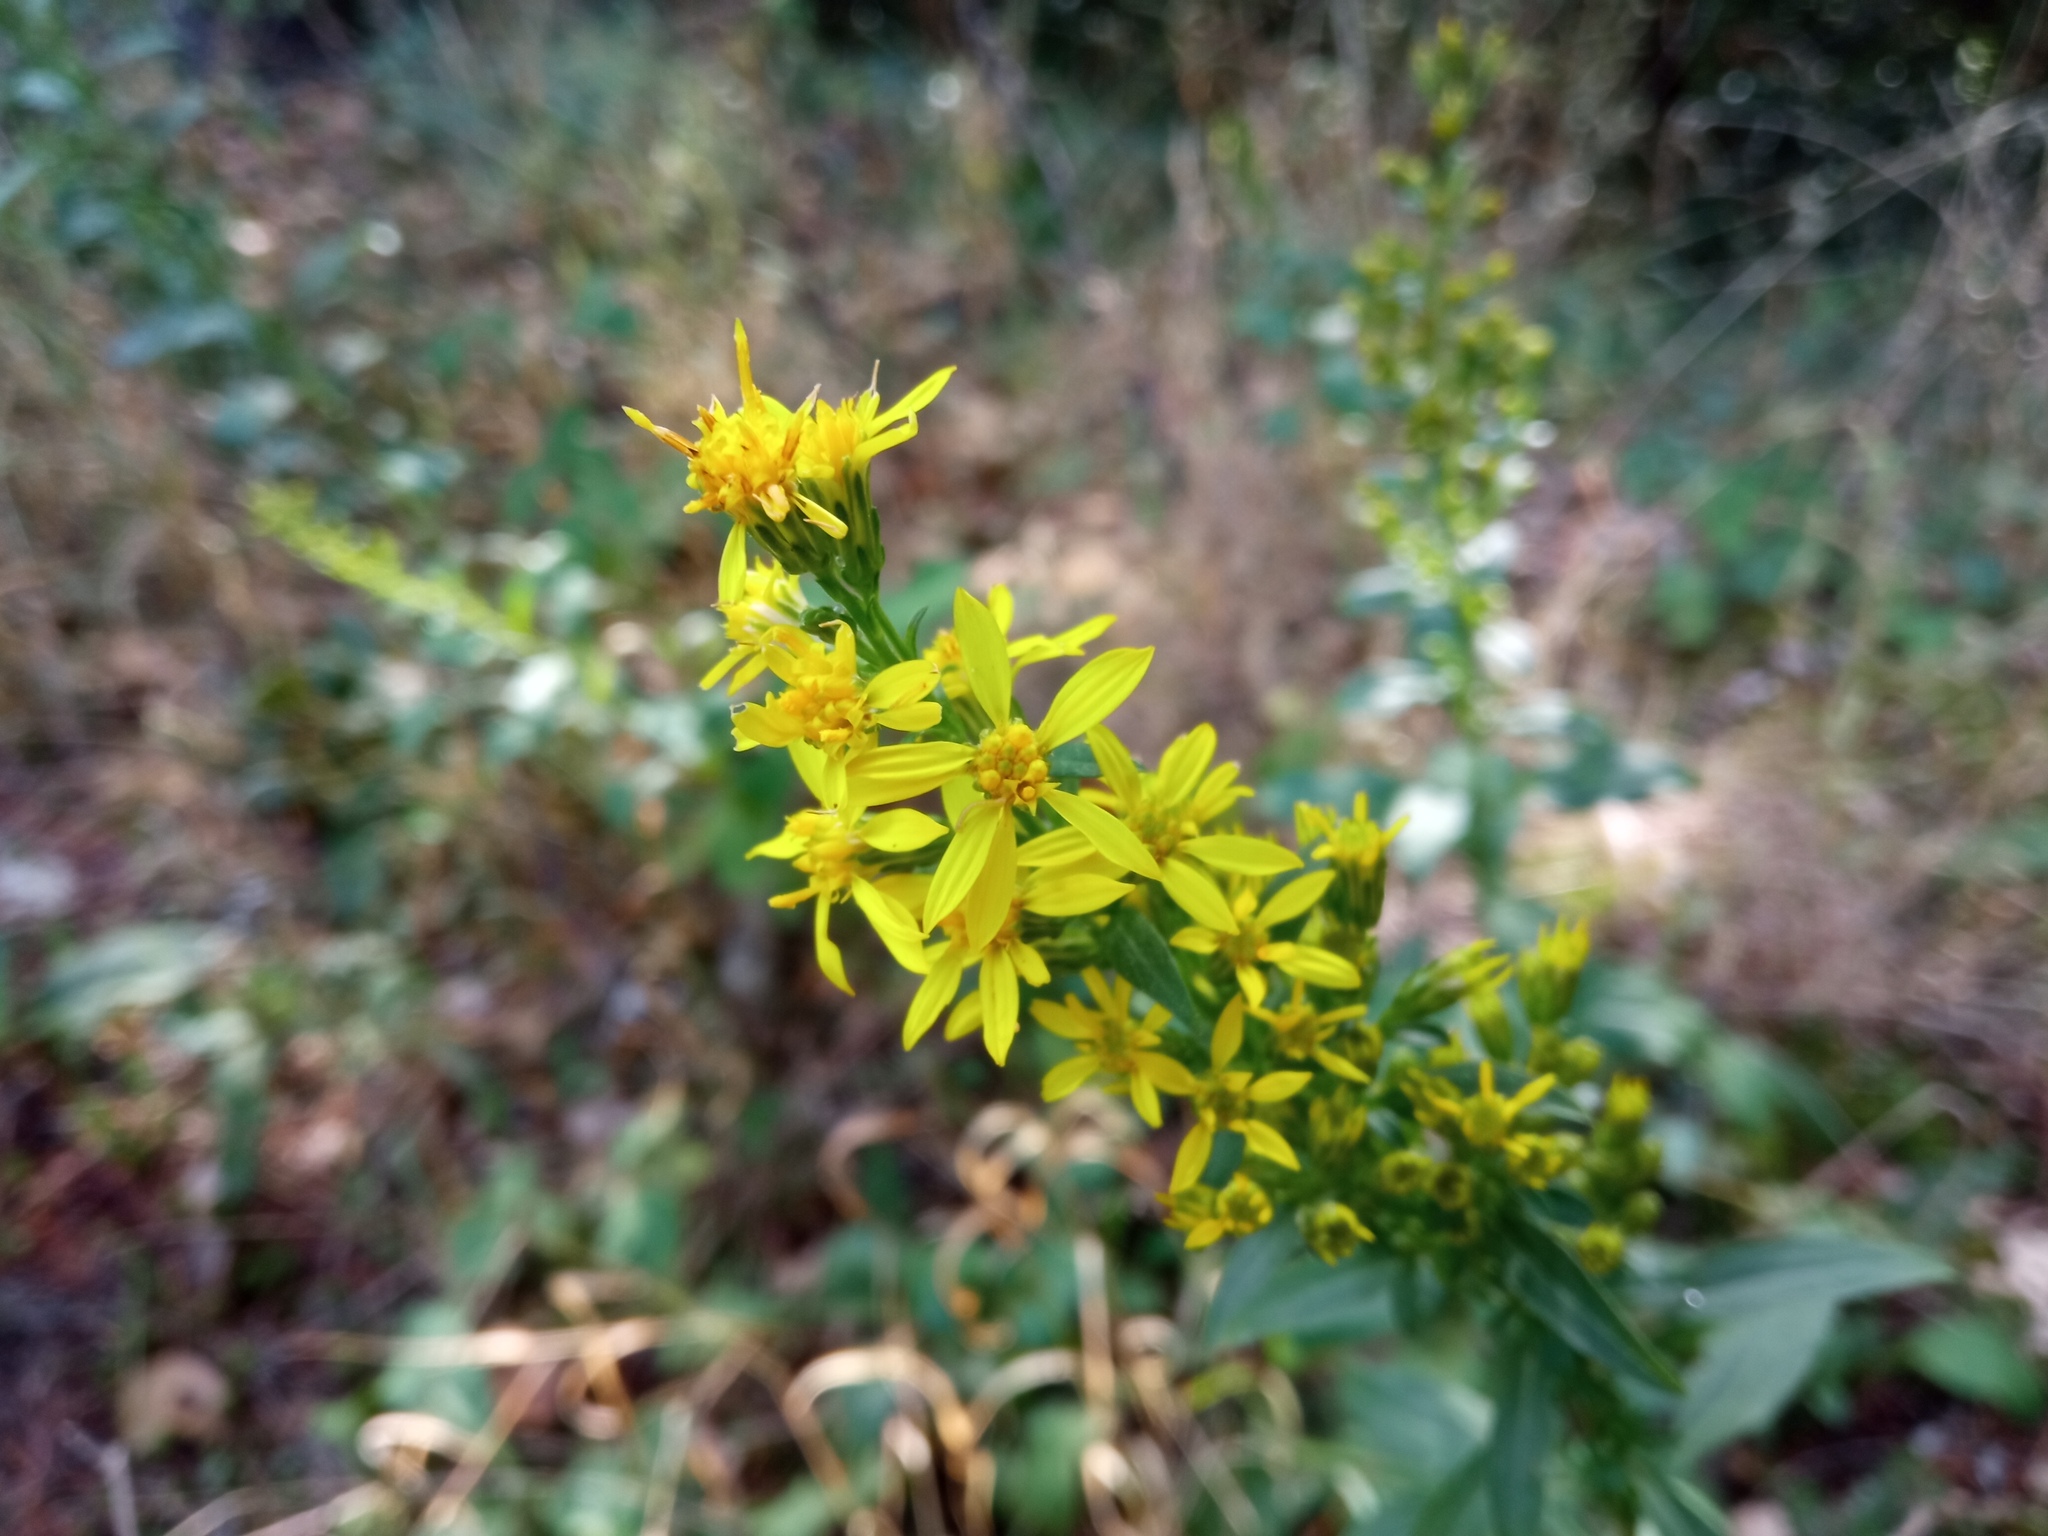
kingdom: Plantae
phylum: Tracheophyta
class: Magnoliopsida
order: Asterales
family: Asteraceae
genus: Solidago
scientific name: Solidago virgaurea
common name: Goldenrod
